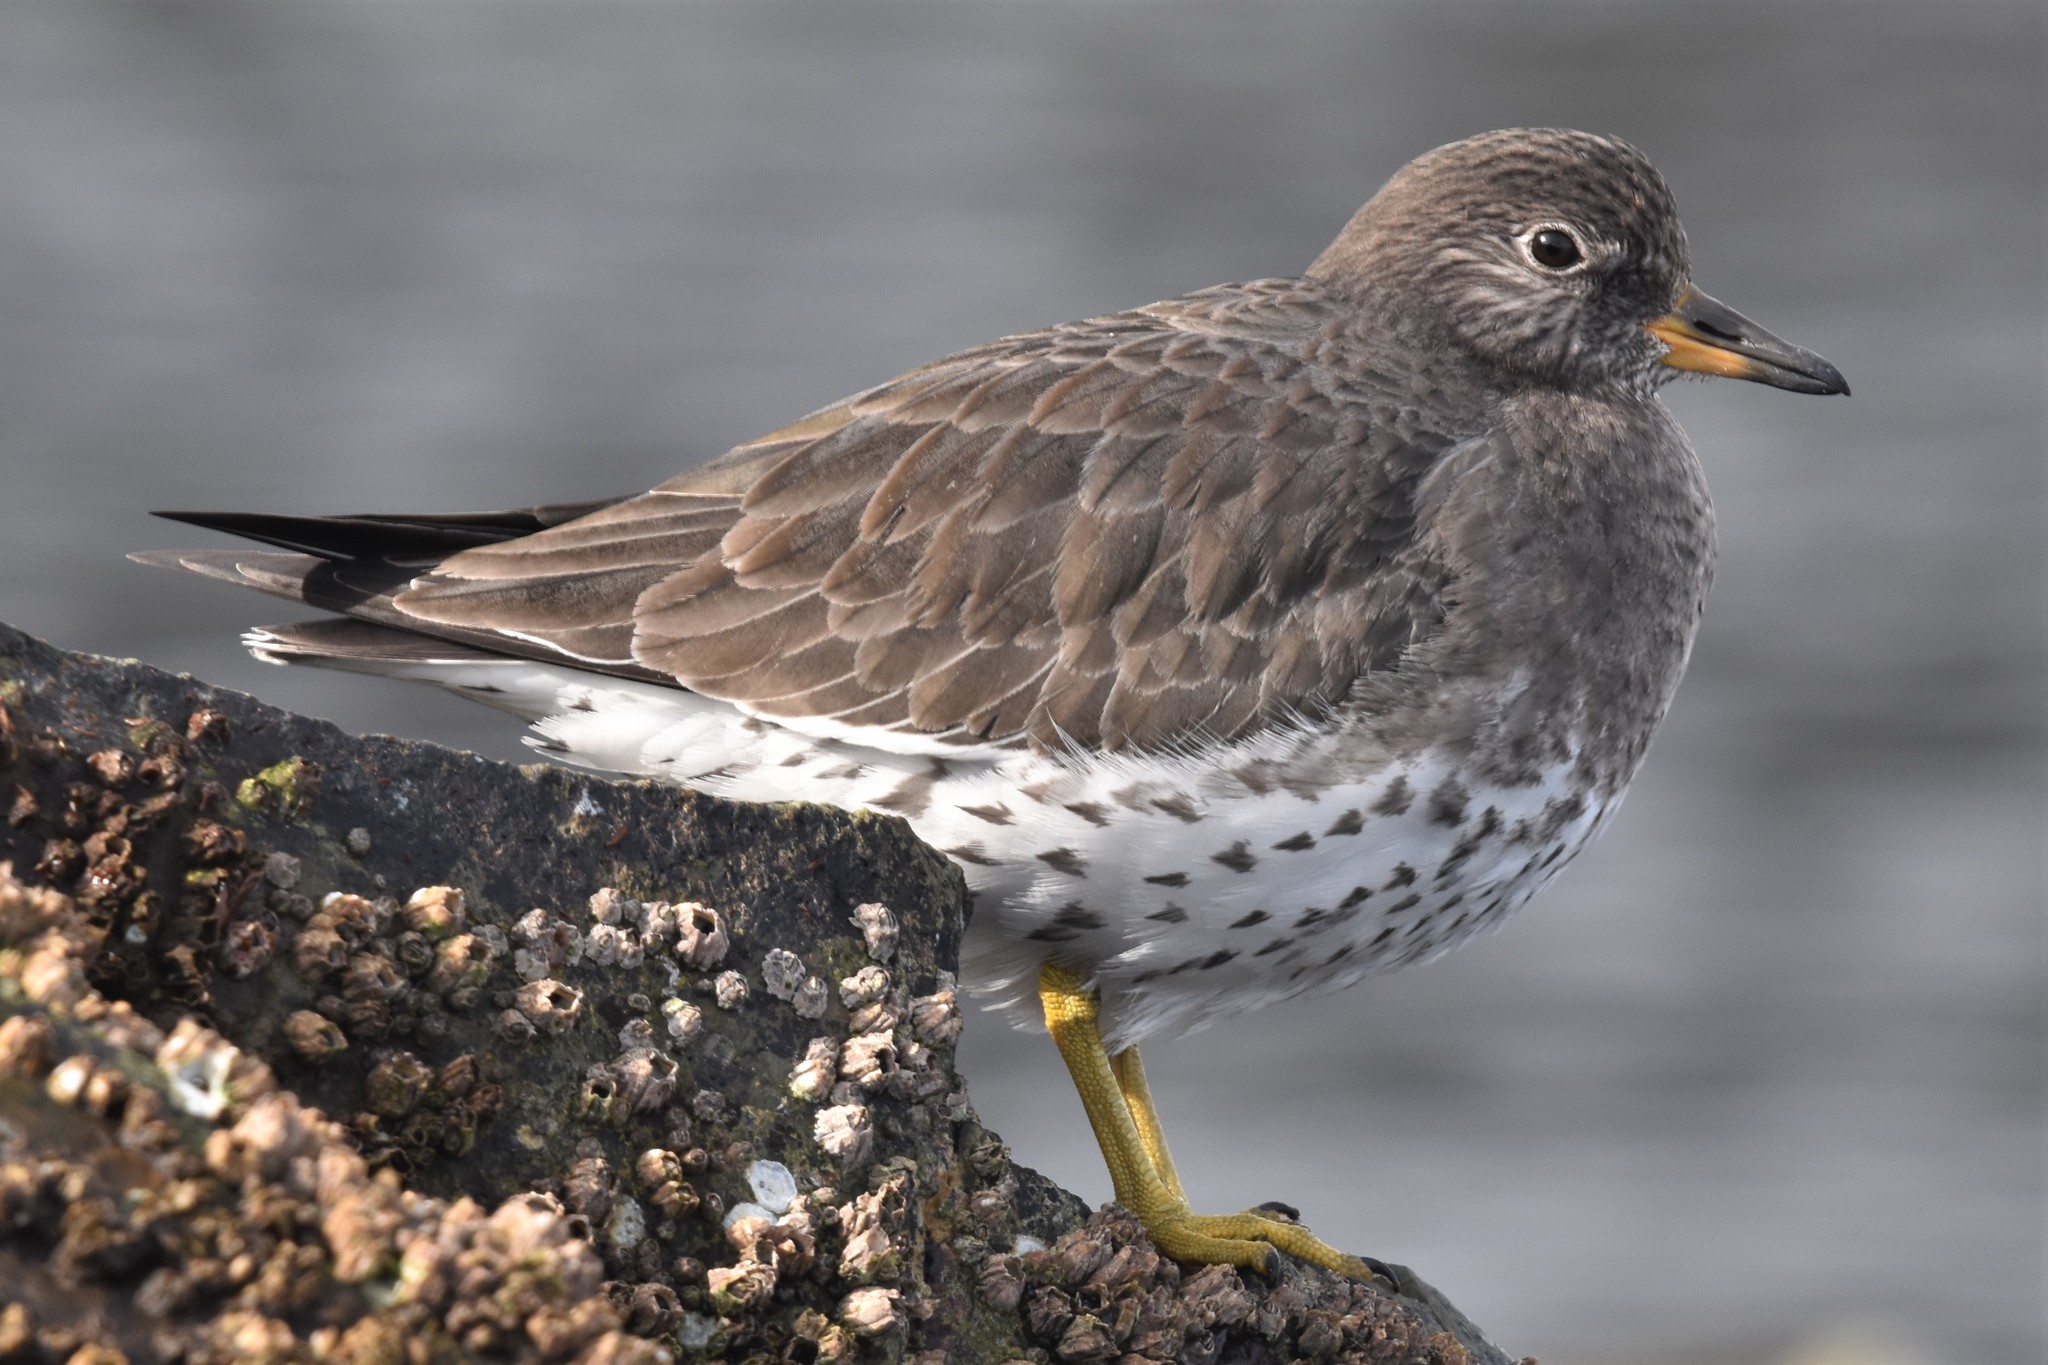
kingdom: Animalia
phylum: Chordata
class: Aves
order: Charadriiformes
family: Scolopacidae
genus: Calidris
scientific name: Calidris virgata
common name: Surfbird
